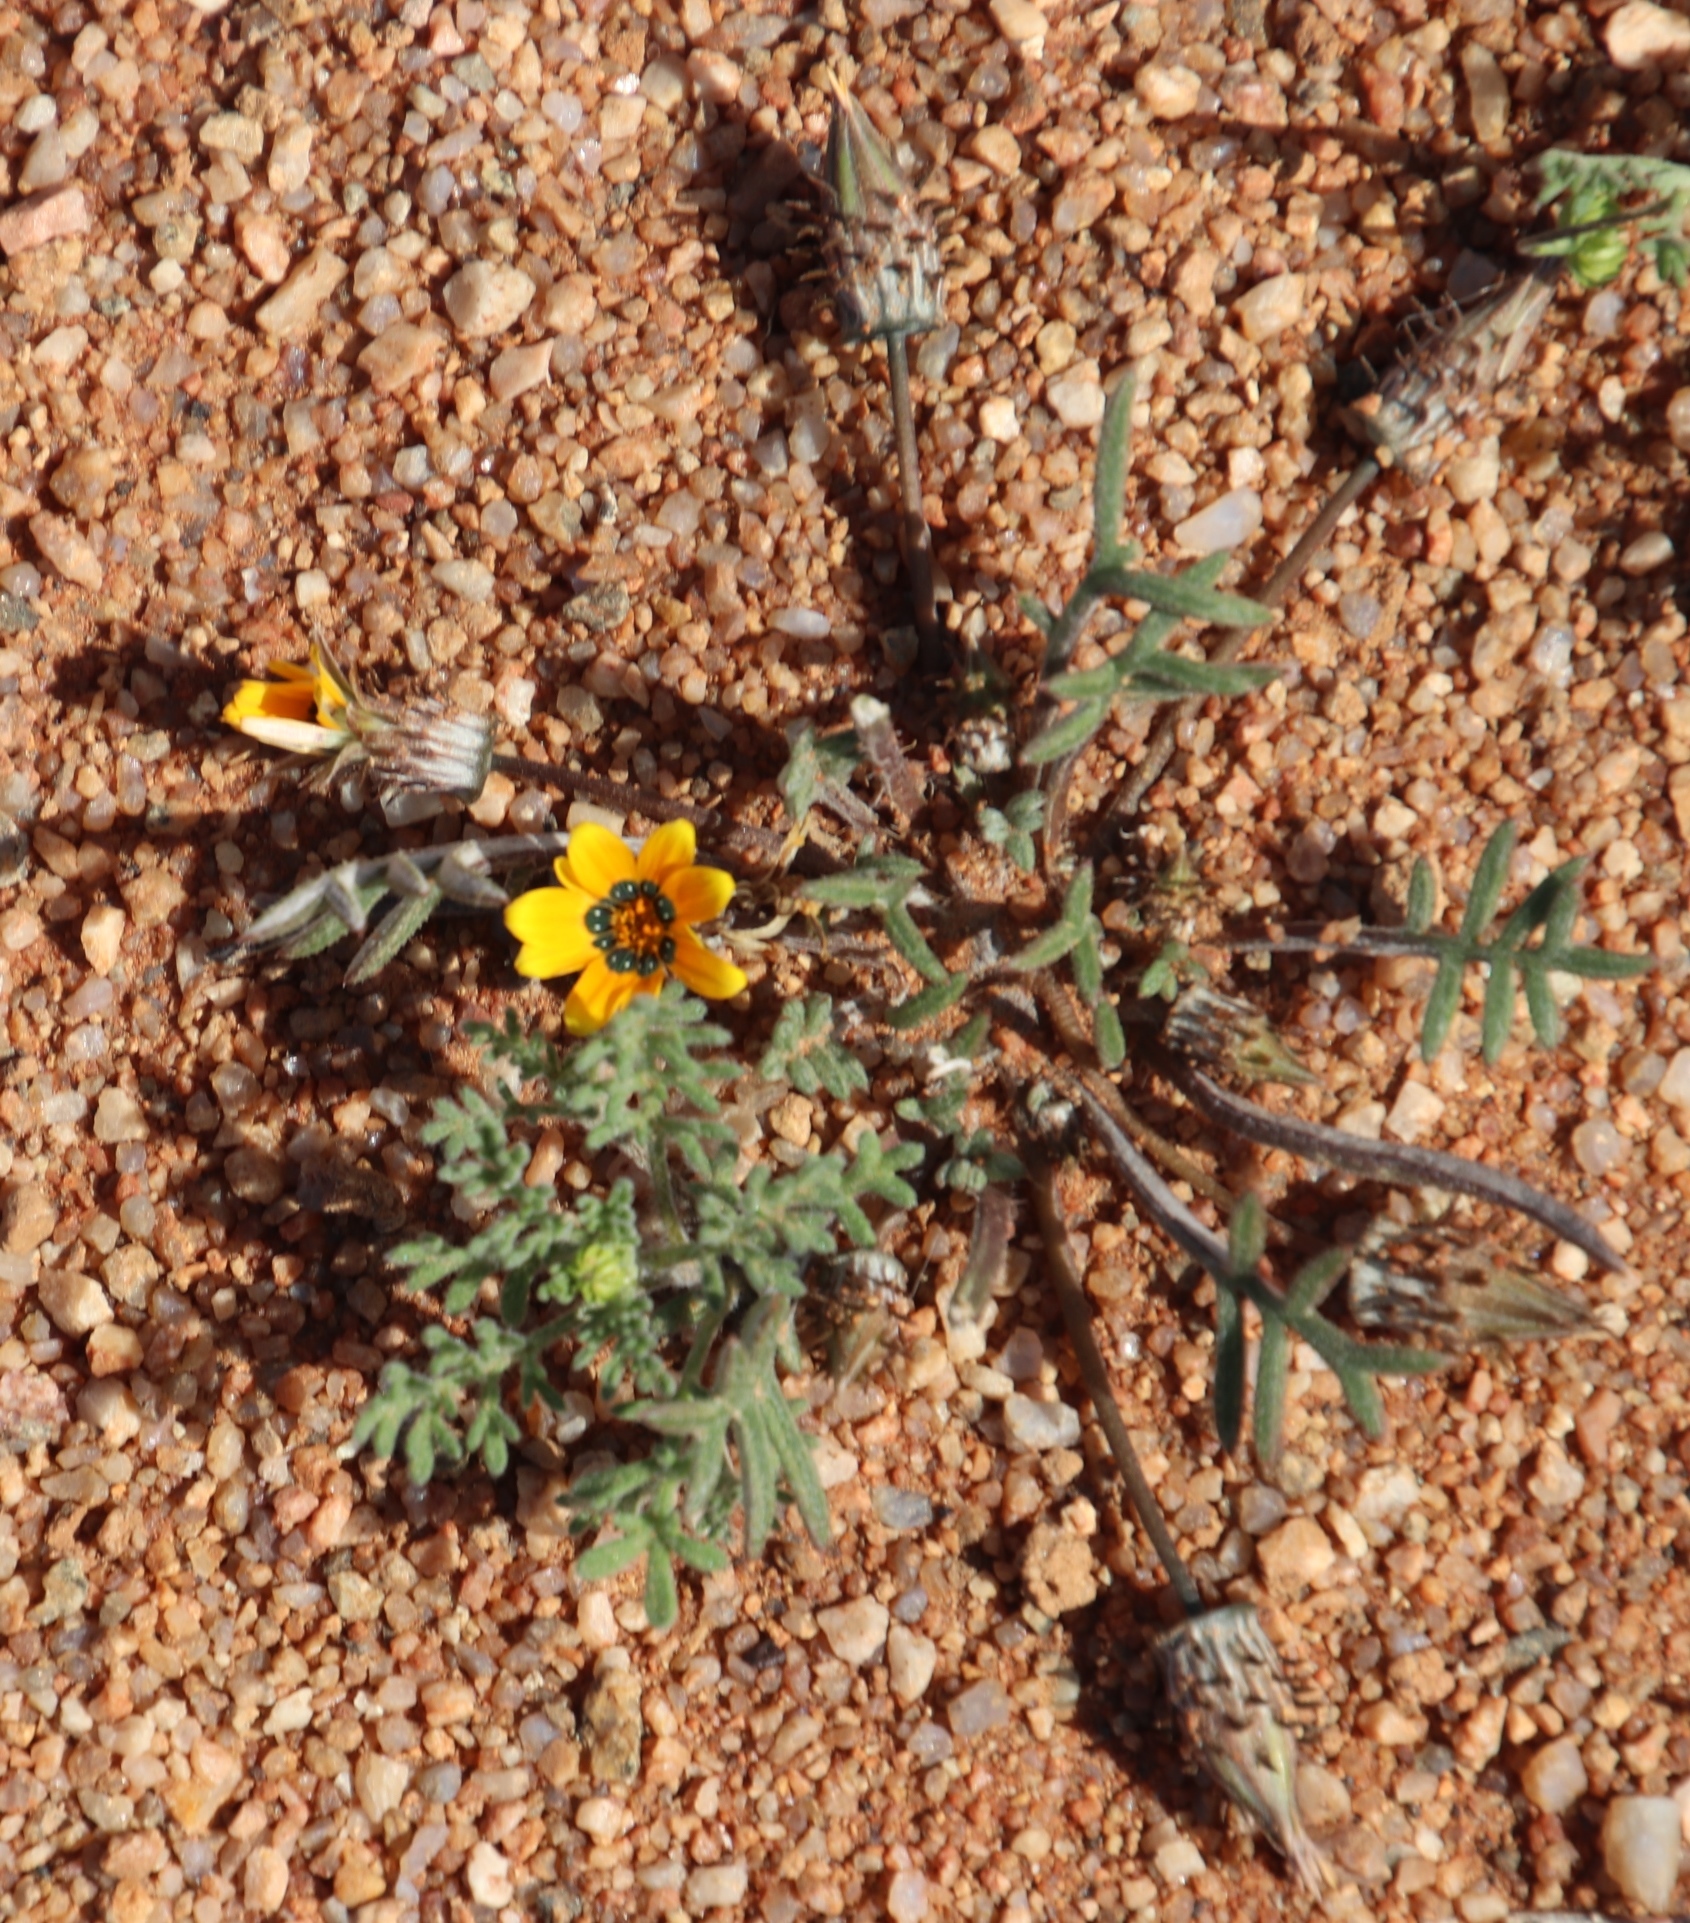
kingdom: Plantae
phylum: Tracheophyta
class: Magnoliopsida
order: Asterales
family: Asteraceae
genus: Gazania
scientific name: Gazania tenuifolia
